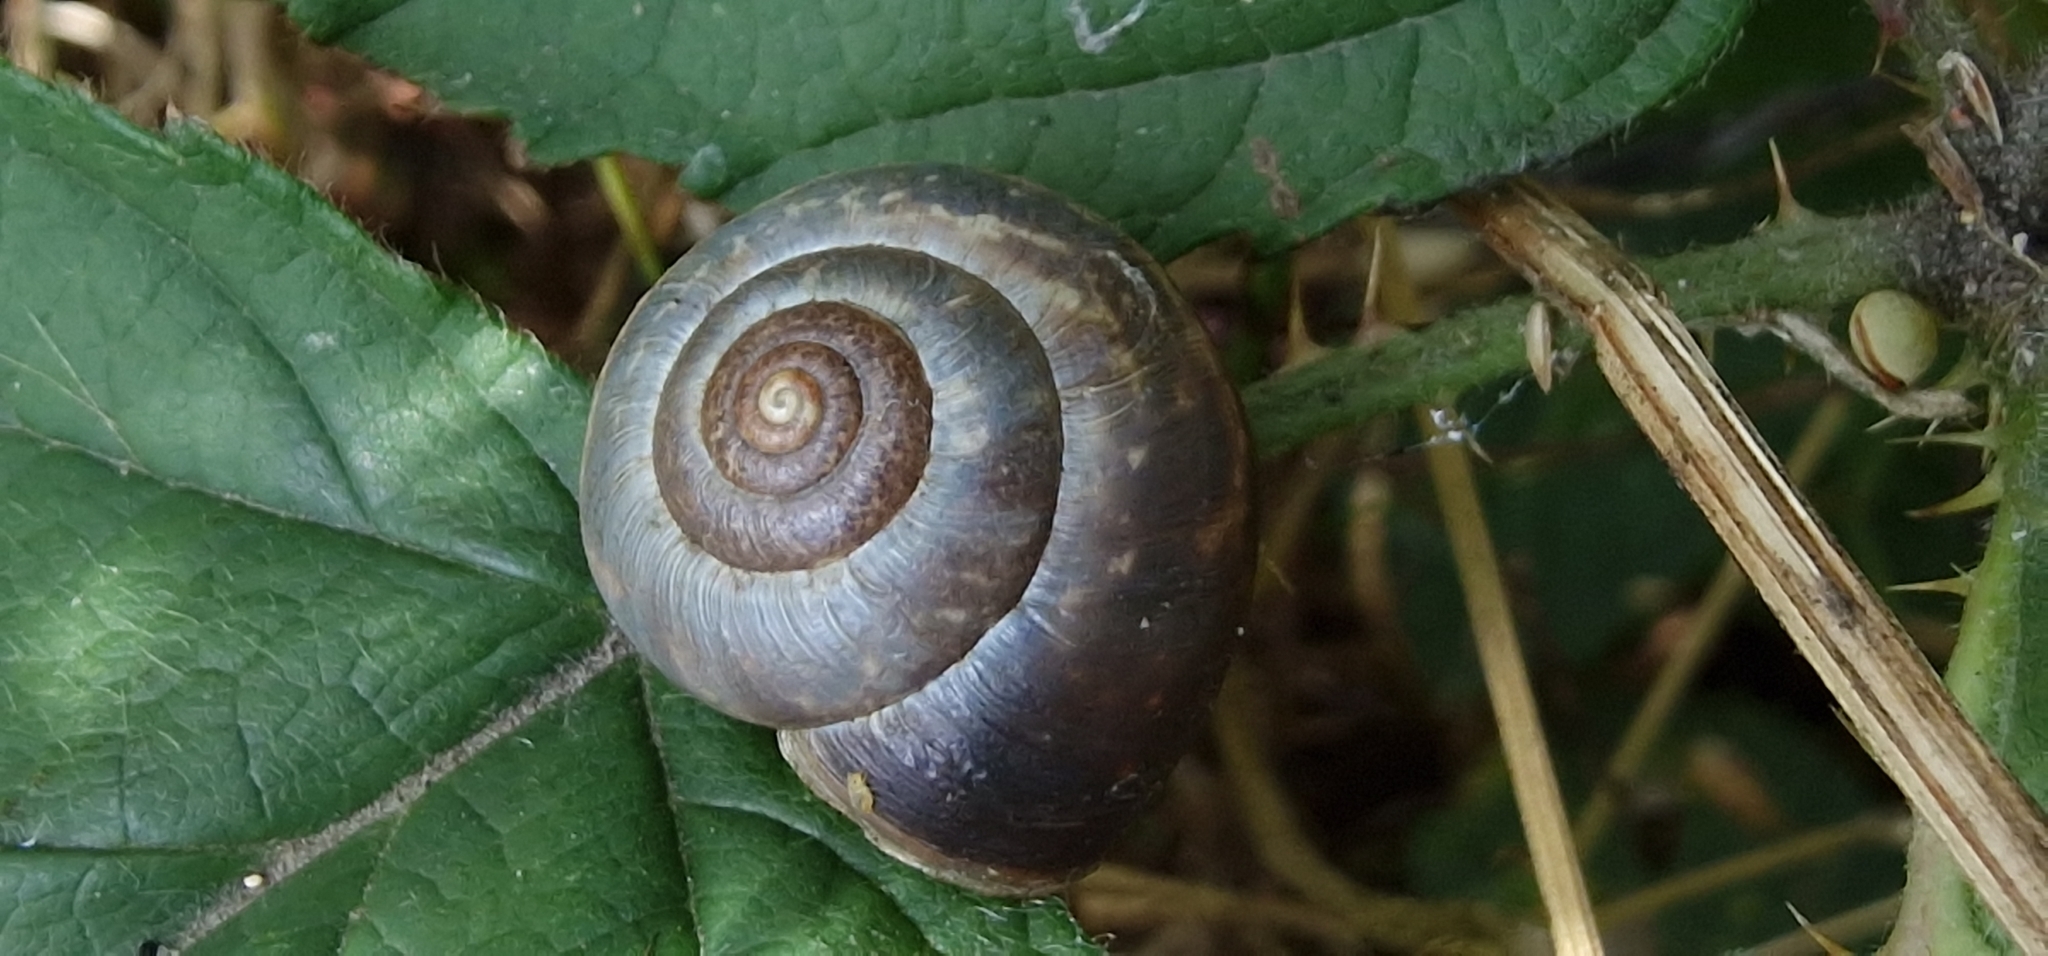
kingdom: Animalia
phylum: Mollusca
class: Gastropoda
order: Stylommatophora
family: Hygromiidae
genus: Monacha
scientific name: Monacha cantiana
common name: Kentish snail
